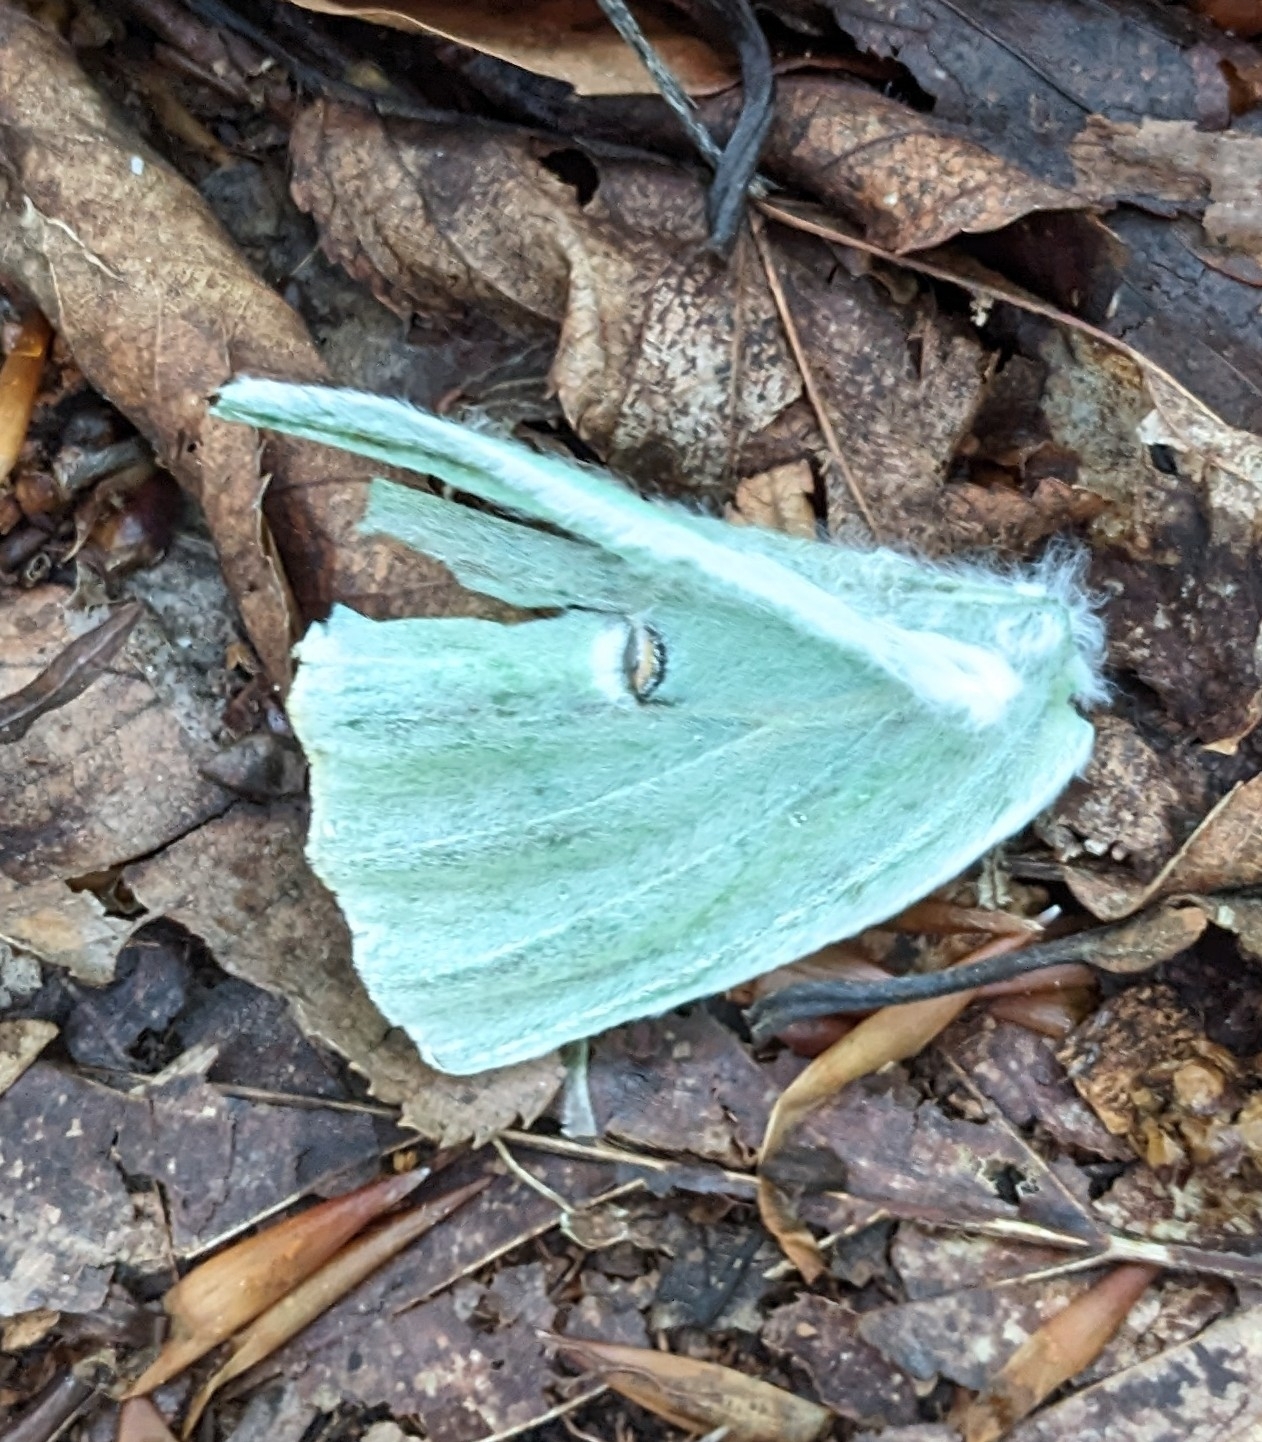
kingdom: Animalia
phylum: Arthropoda
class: Insecta
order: Lepidoptera
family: Saturniidae
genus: Actias
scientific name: Actias luna
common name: Luna moth
